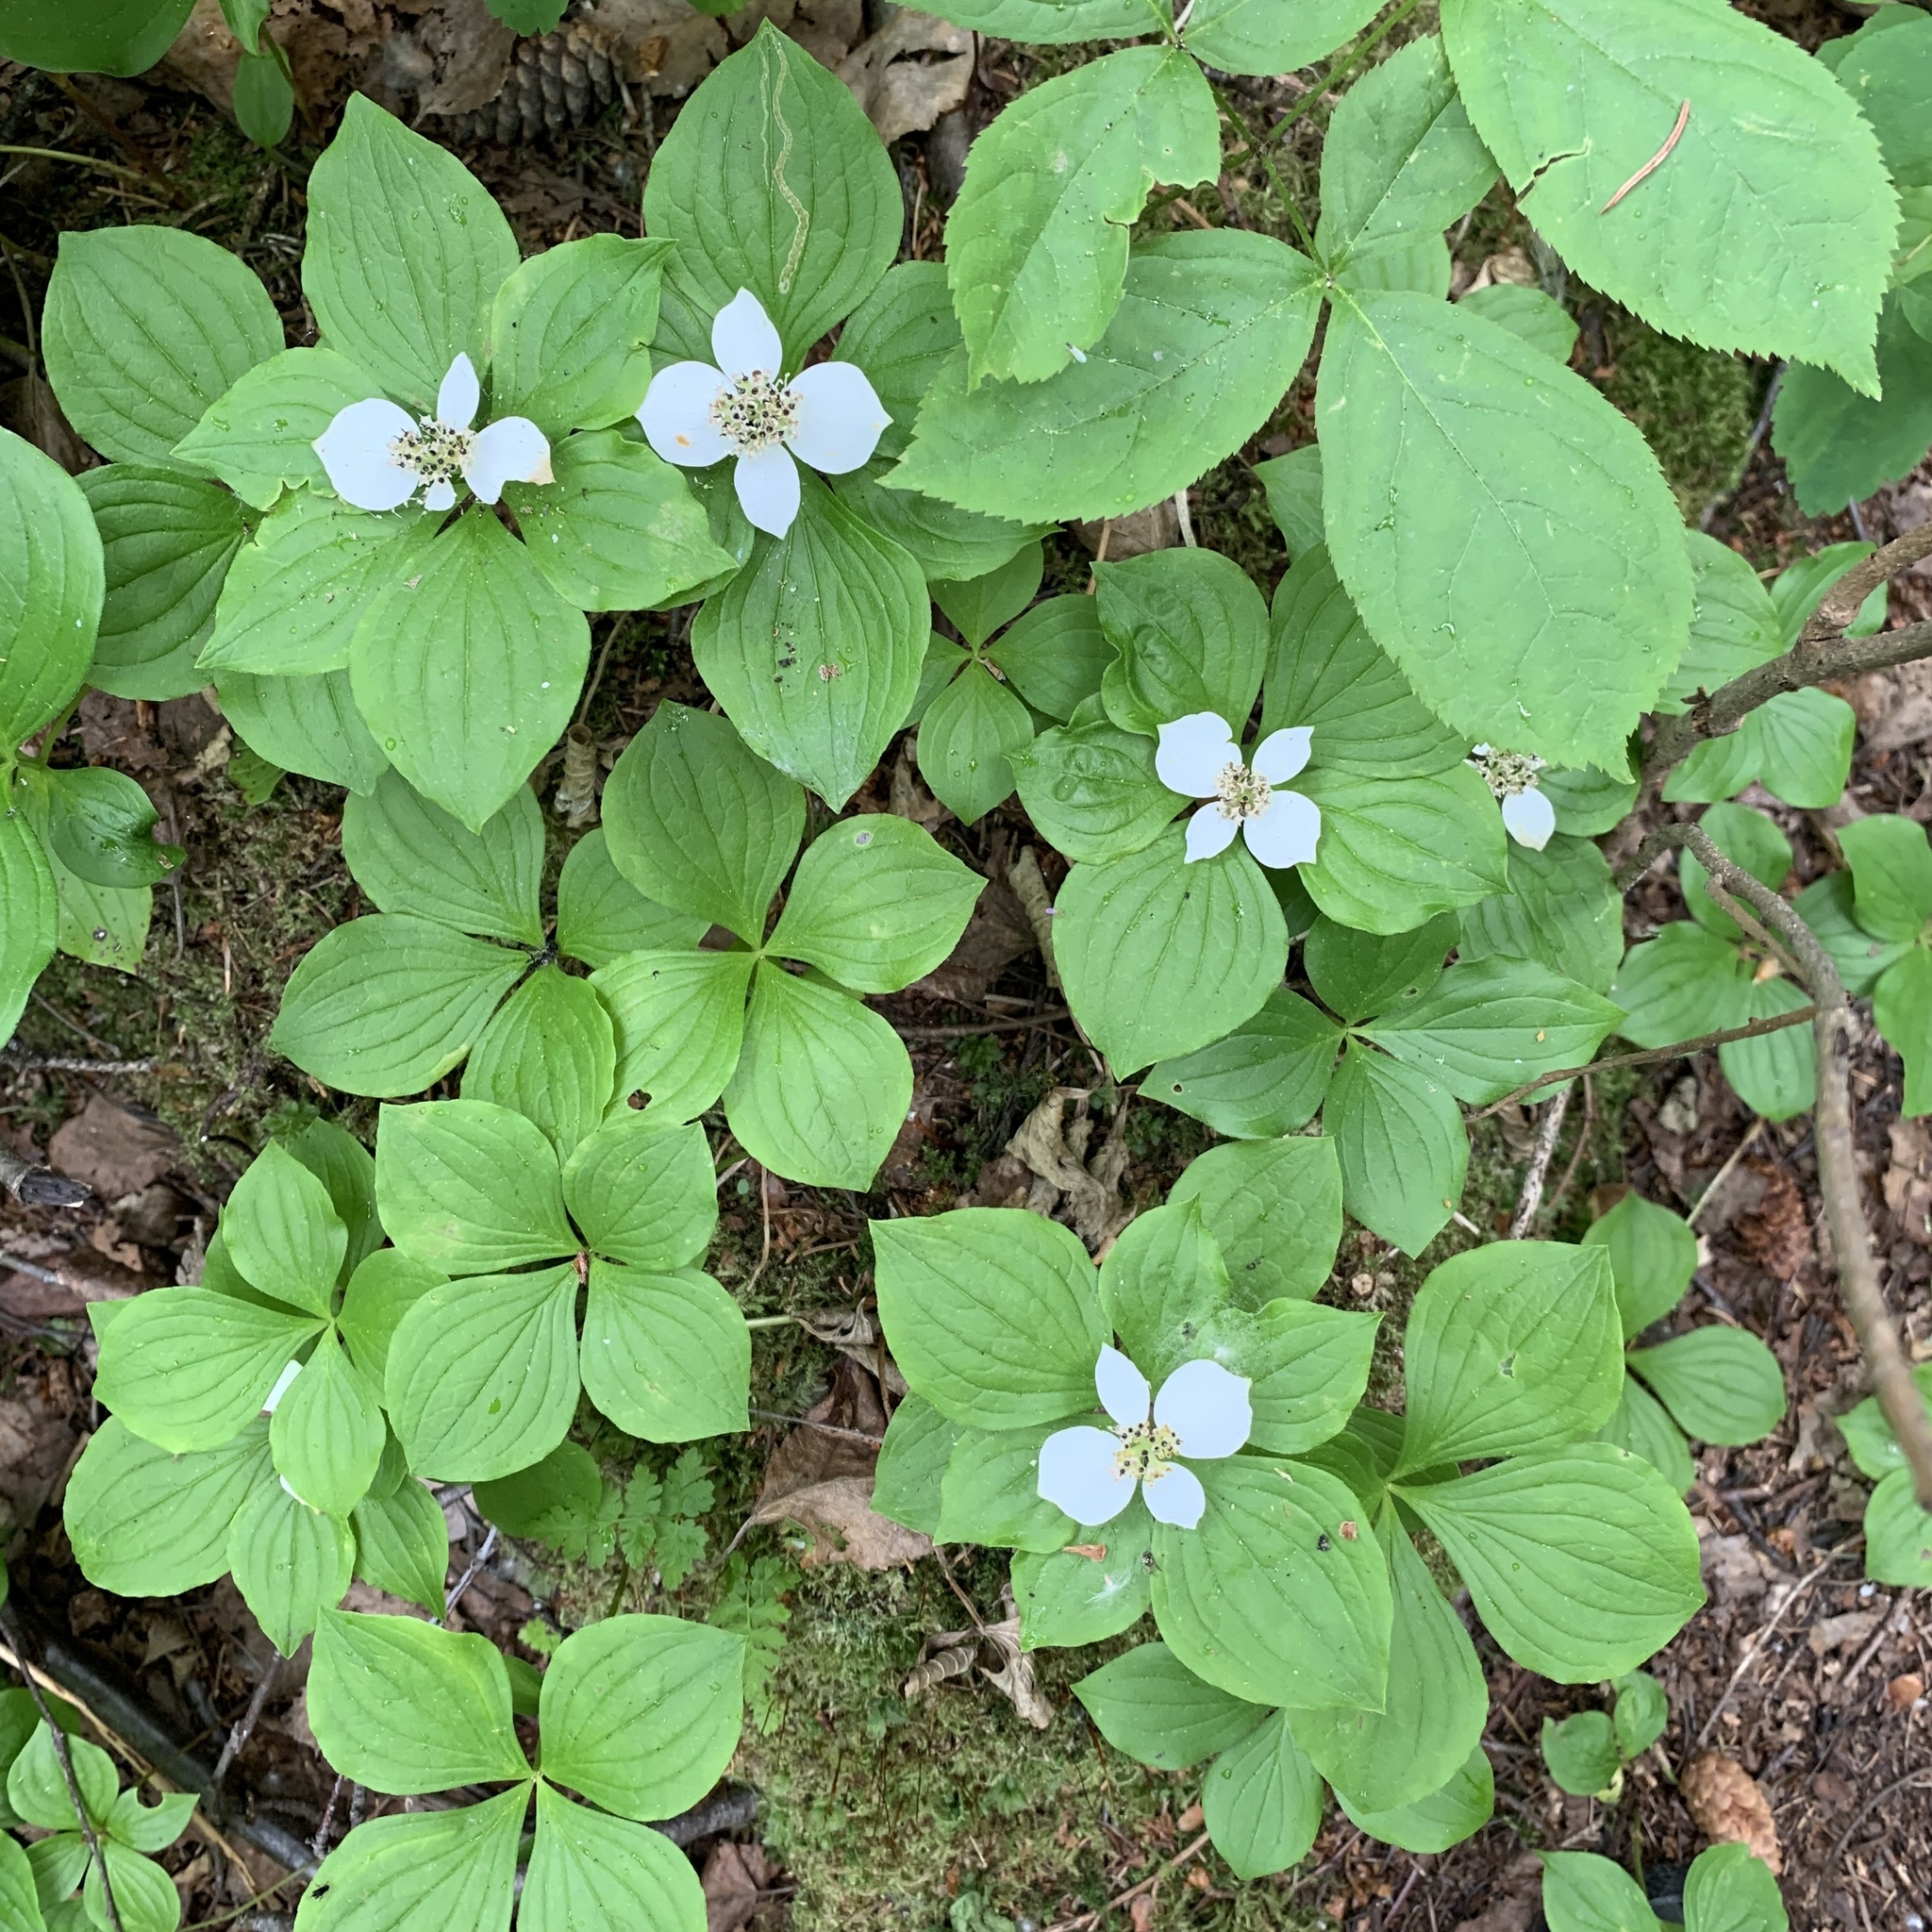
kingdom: Plantae
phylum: Tracheophyta
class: Magnoliopsida
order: Cornales
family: Cornaceae
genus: Cornus
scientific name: Cornus canadensis
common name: Creeping dogwood
